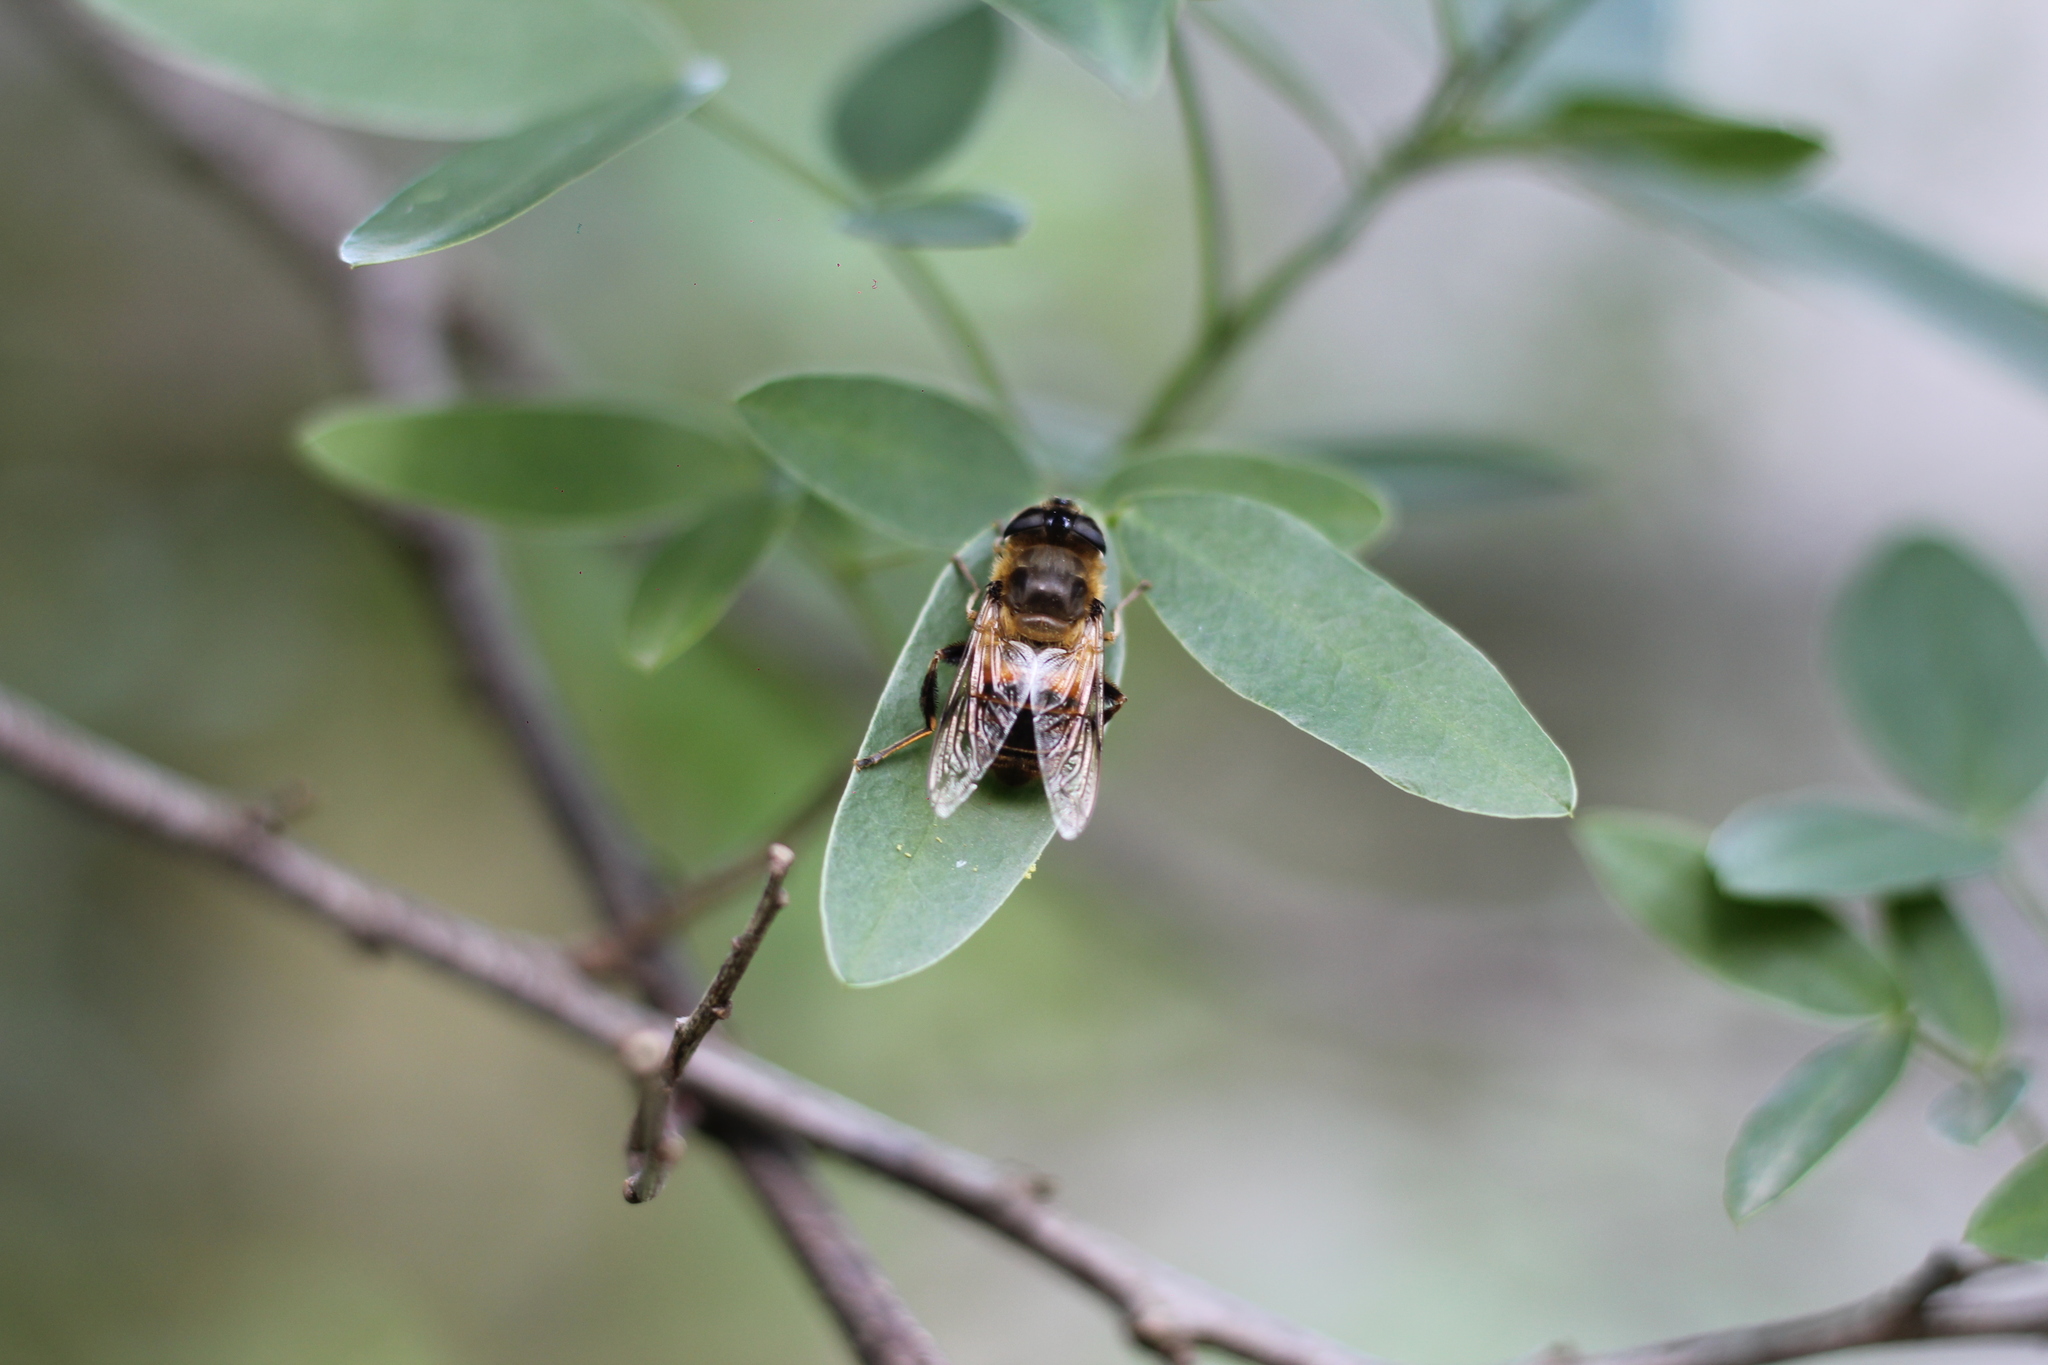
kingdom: Animalia
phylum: Arthropoda
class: Insecta
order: Diptera
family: Syrphidae
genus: Eristalis
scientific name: Eristalis tenax
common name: Drone fly
